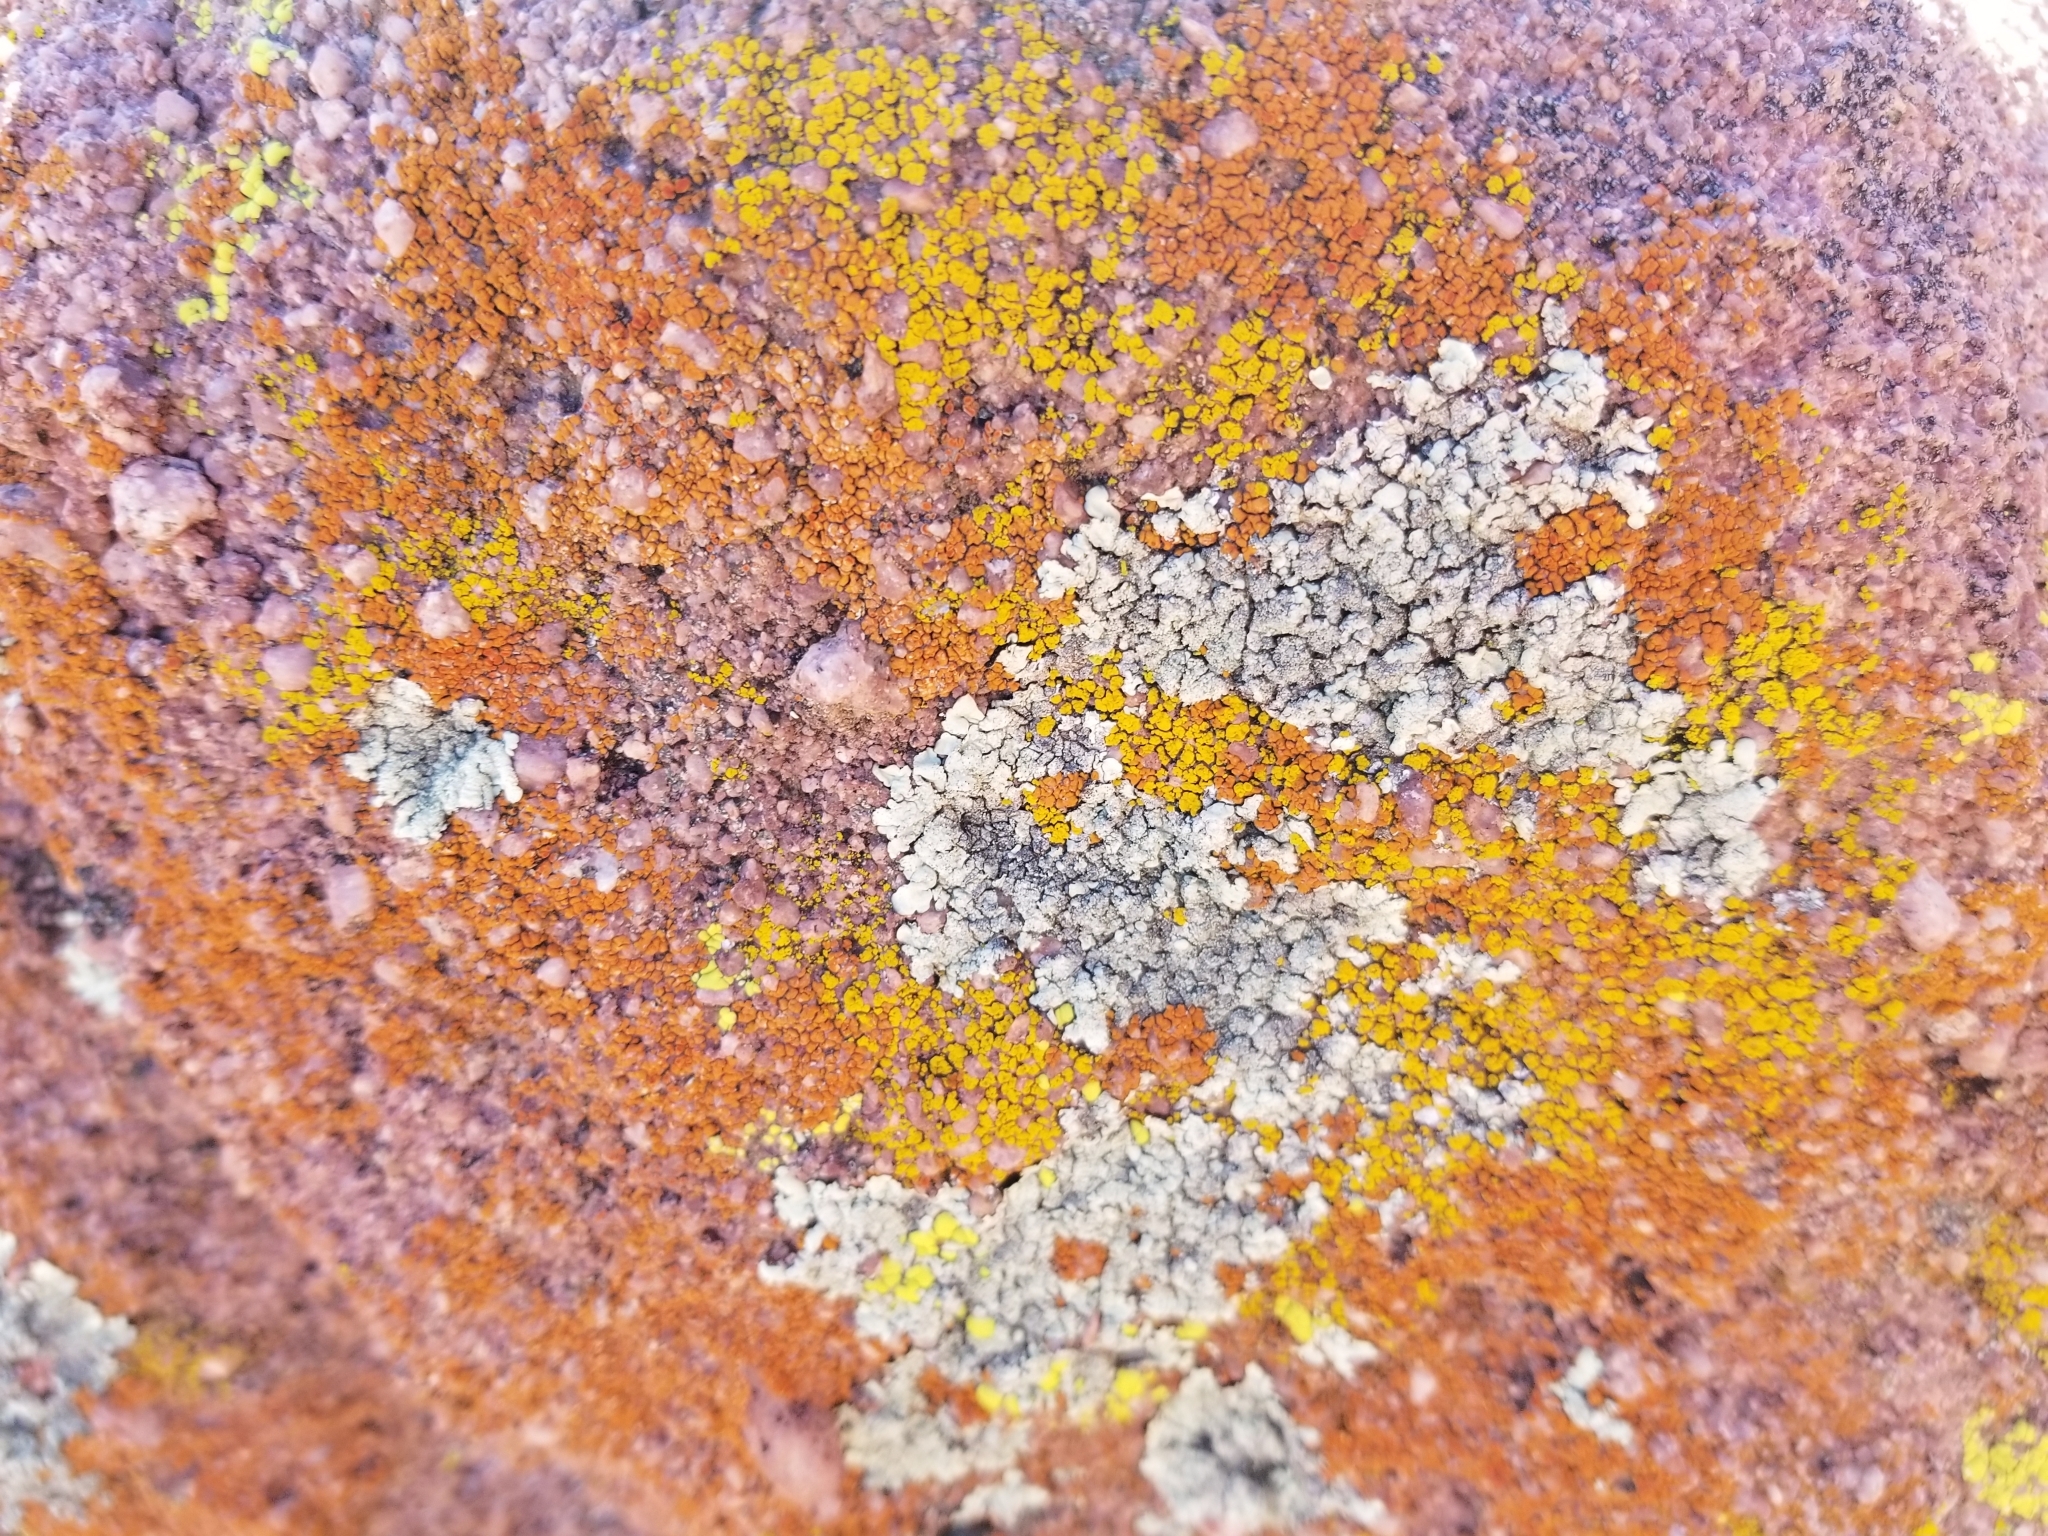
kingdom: Fungi
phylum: Ascomycota
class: Lecanoromycetes
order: Lecanorales
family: Parmeliaceae
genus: Xanthoparmelia
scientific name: Xanthoparmelia maricopensis
